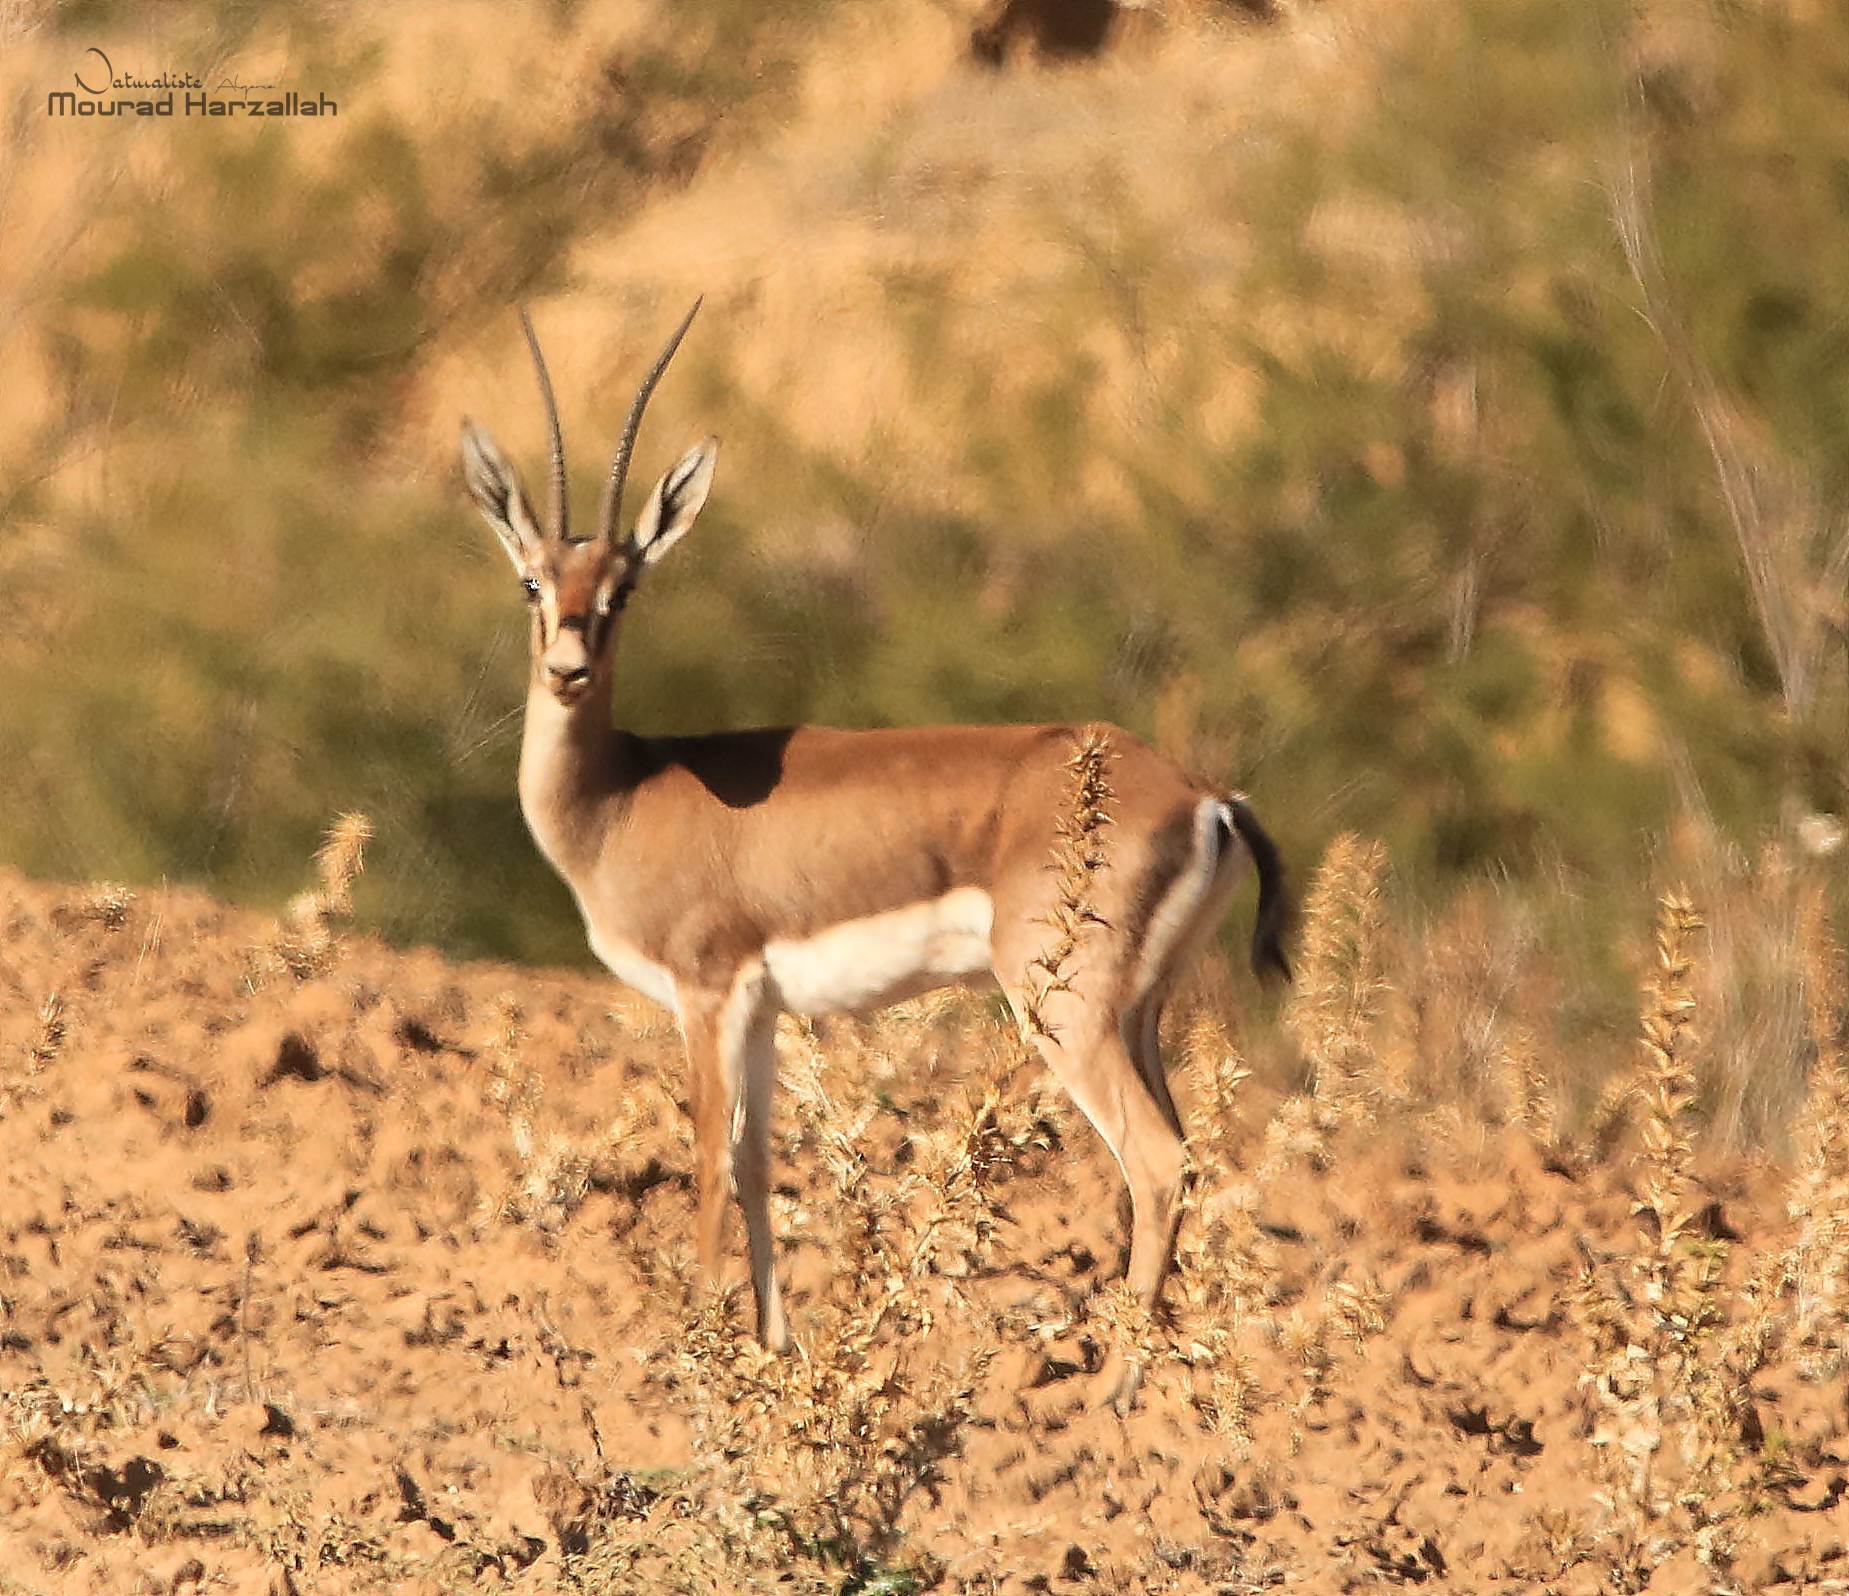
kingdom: Animalia
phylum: Chordata
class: Mammalia
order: Artiodactyla
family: Bovidae
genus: Gazella
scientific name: Gazella cuvieri
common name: Cuvier's gazelle
